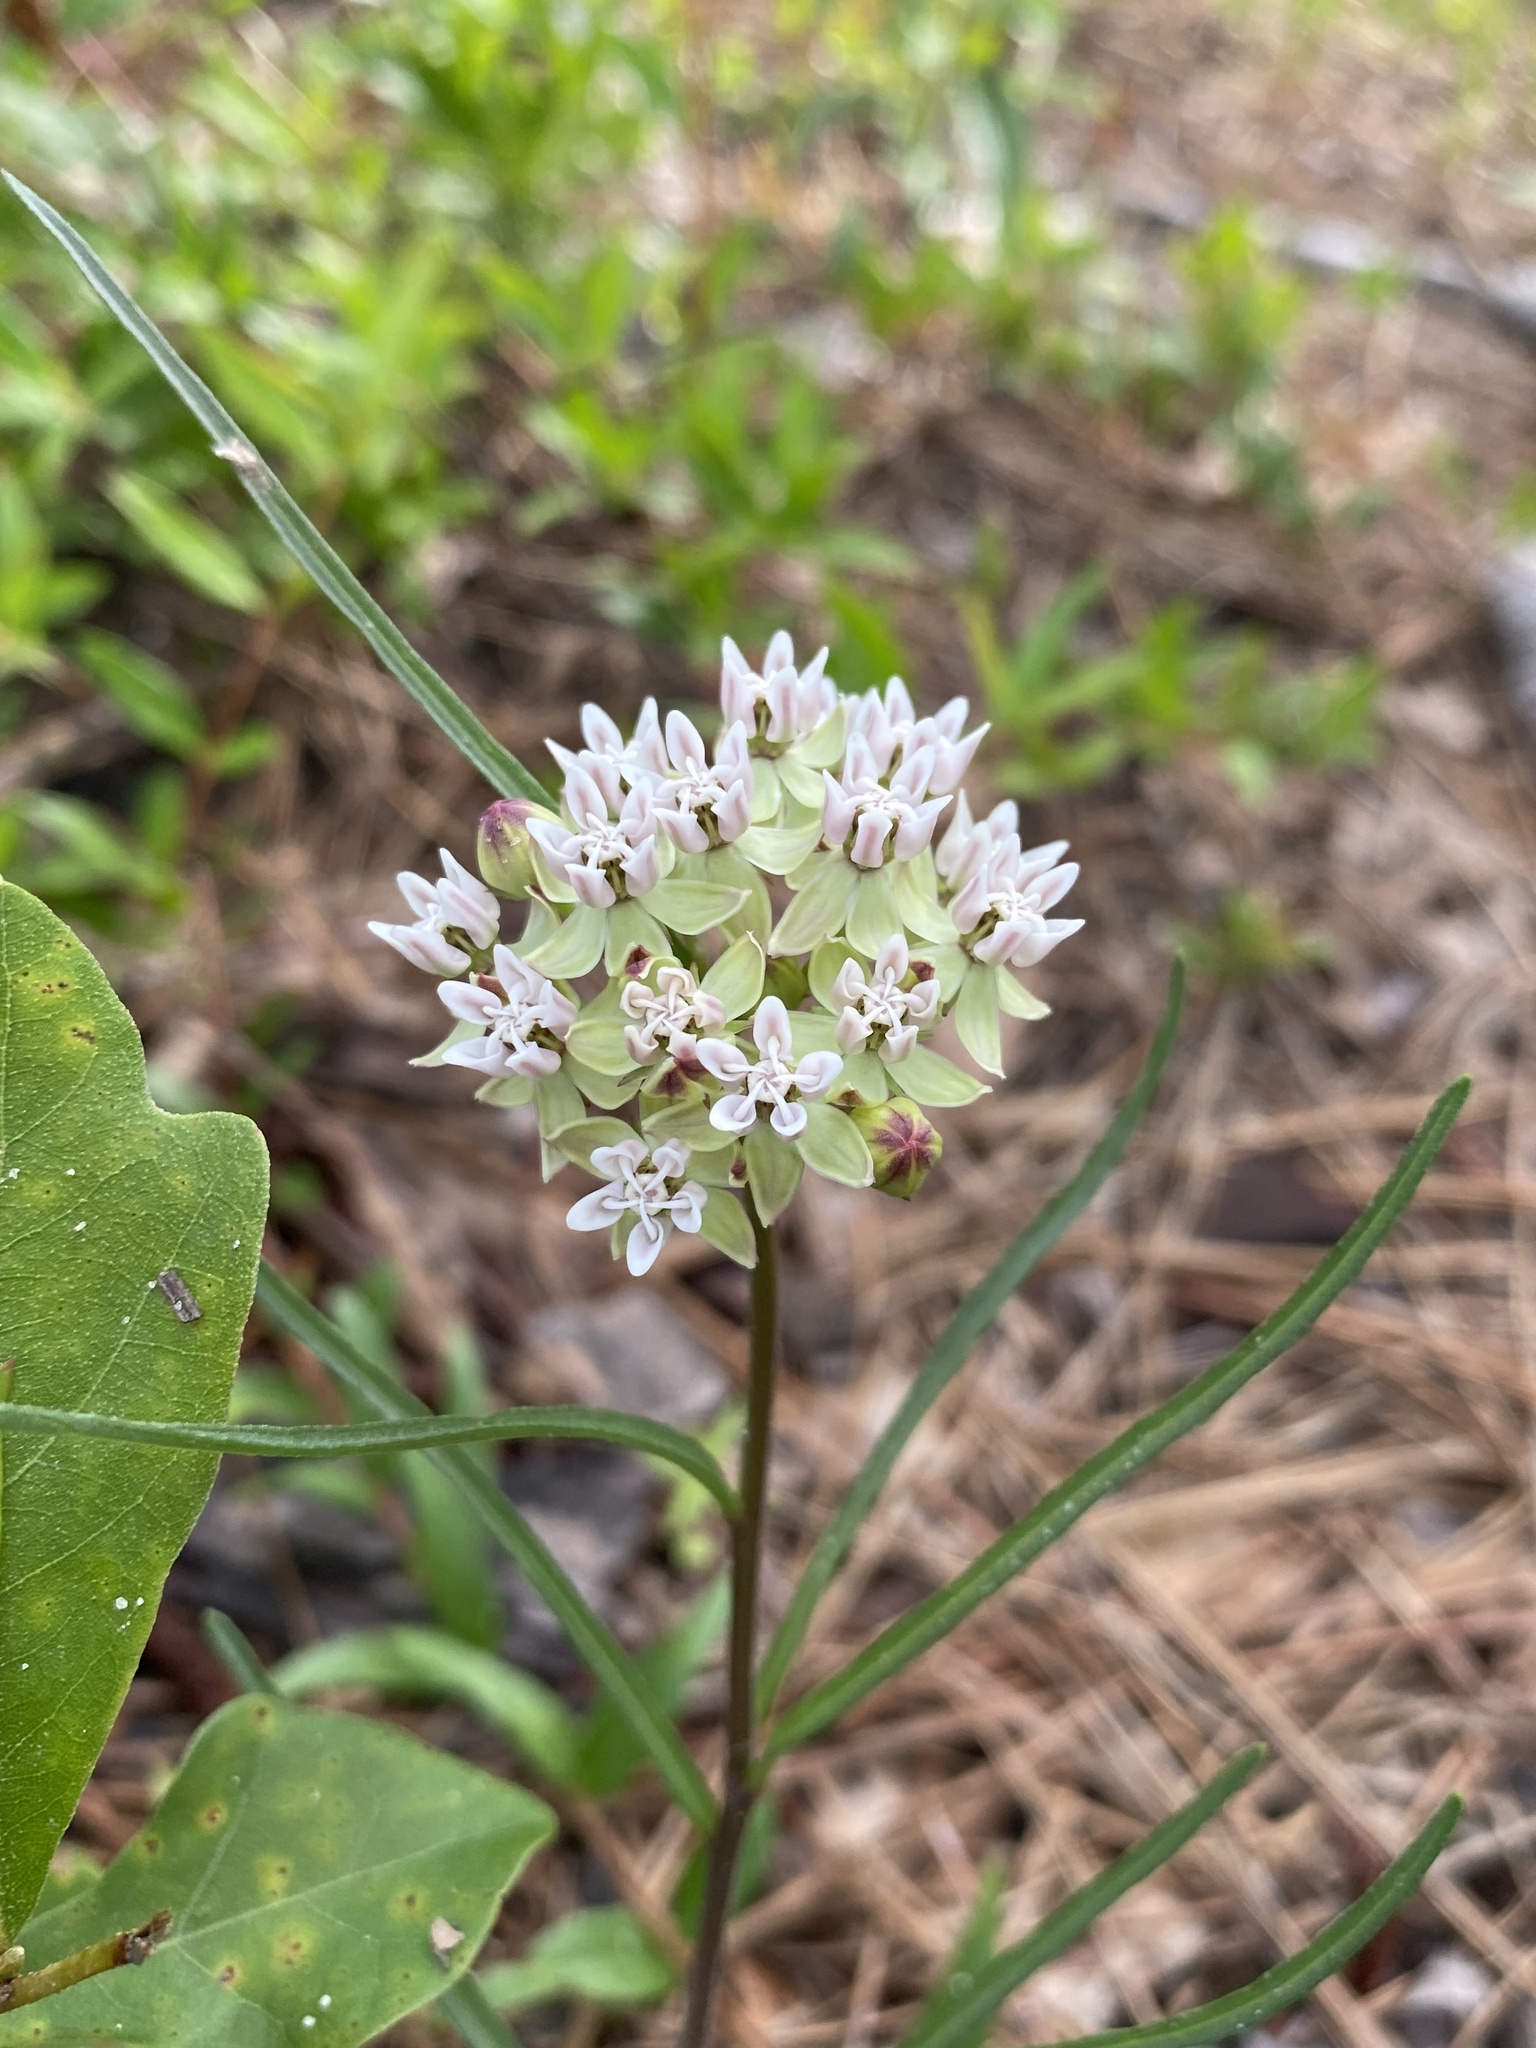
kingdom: Plantae
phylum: Tracheophyta
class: Magnoliopsida
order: Gentianales
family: Apocynaceae
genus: Asclepias
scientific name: Asclepias michauxii
